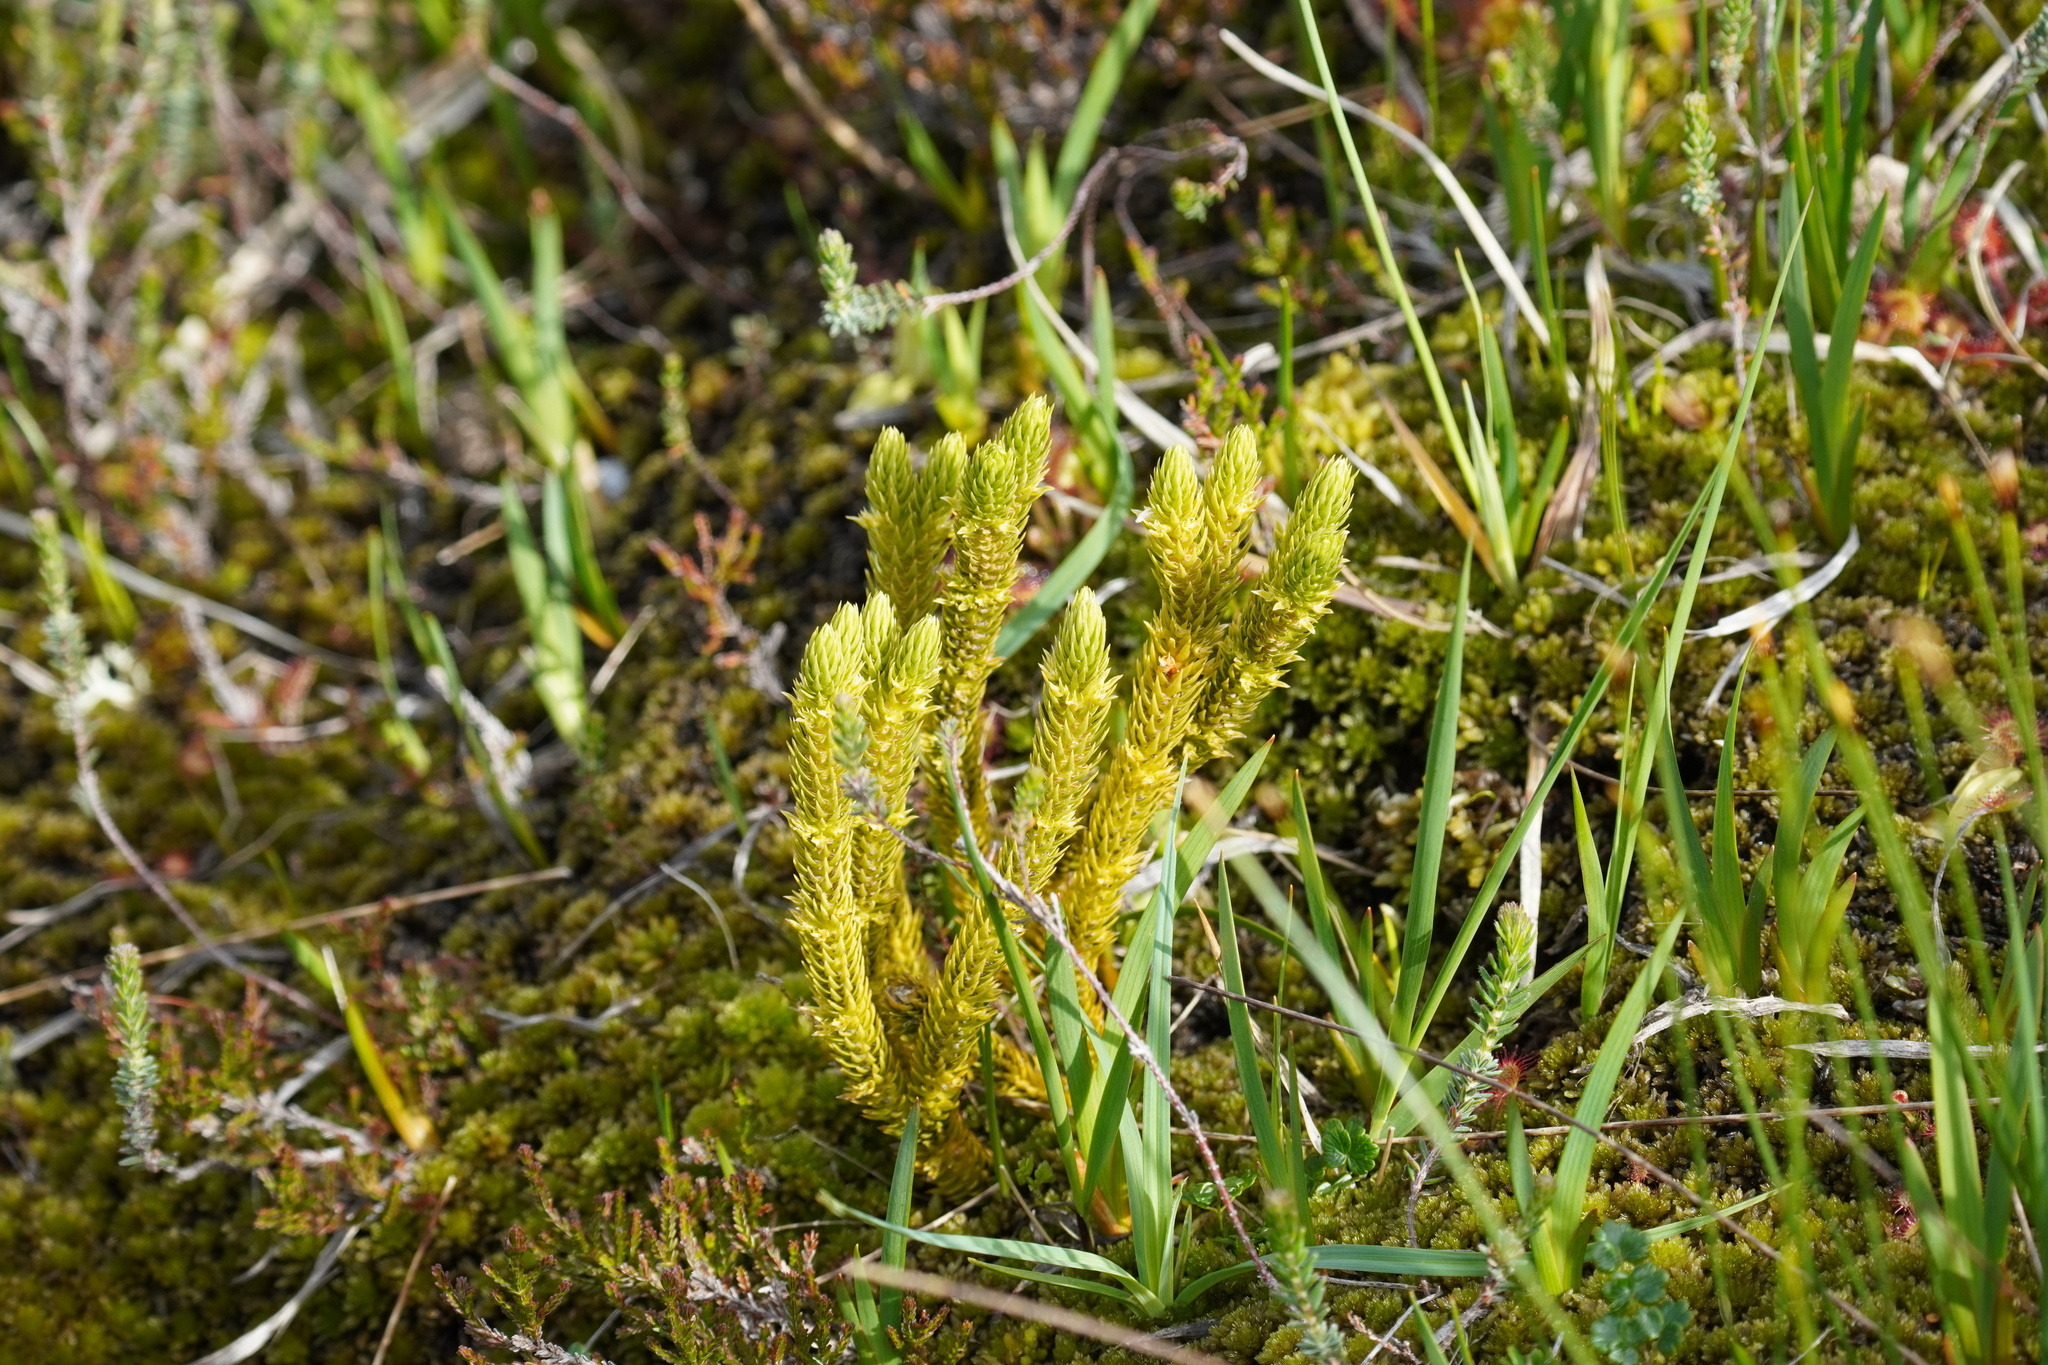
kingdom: Plantae
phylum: Tracheophyta
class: Lycopodiopsida
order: Lycopodiales
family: Lycopodiaceae
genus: Huperzia
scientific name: Huperzia selago
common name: Northern firmoss
